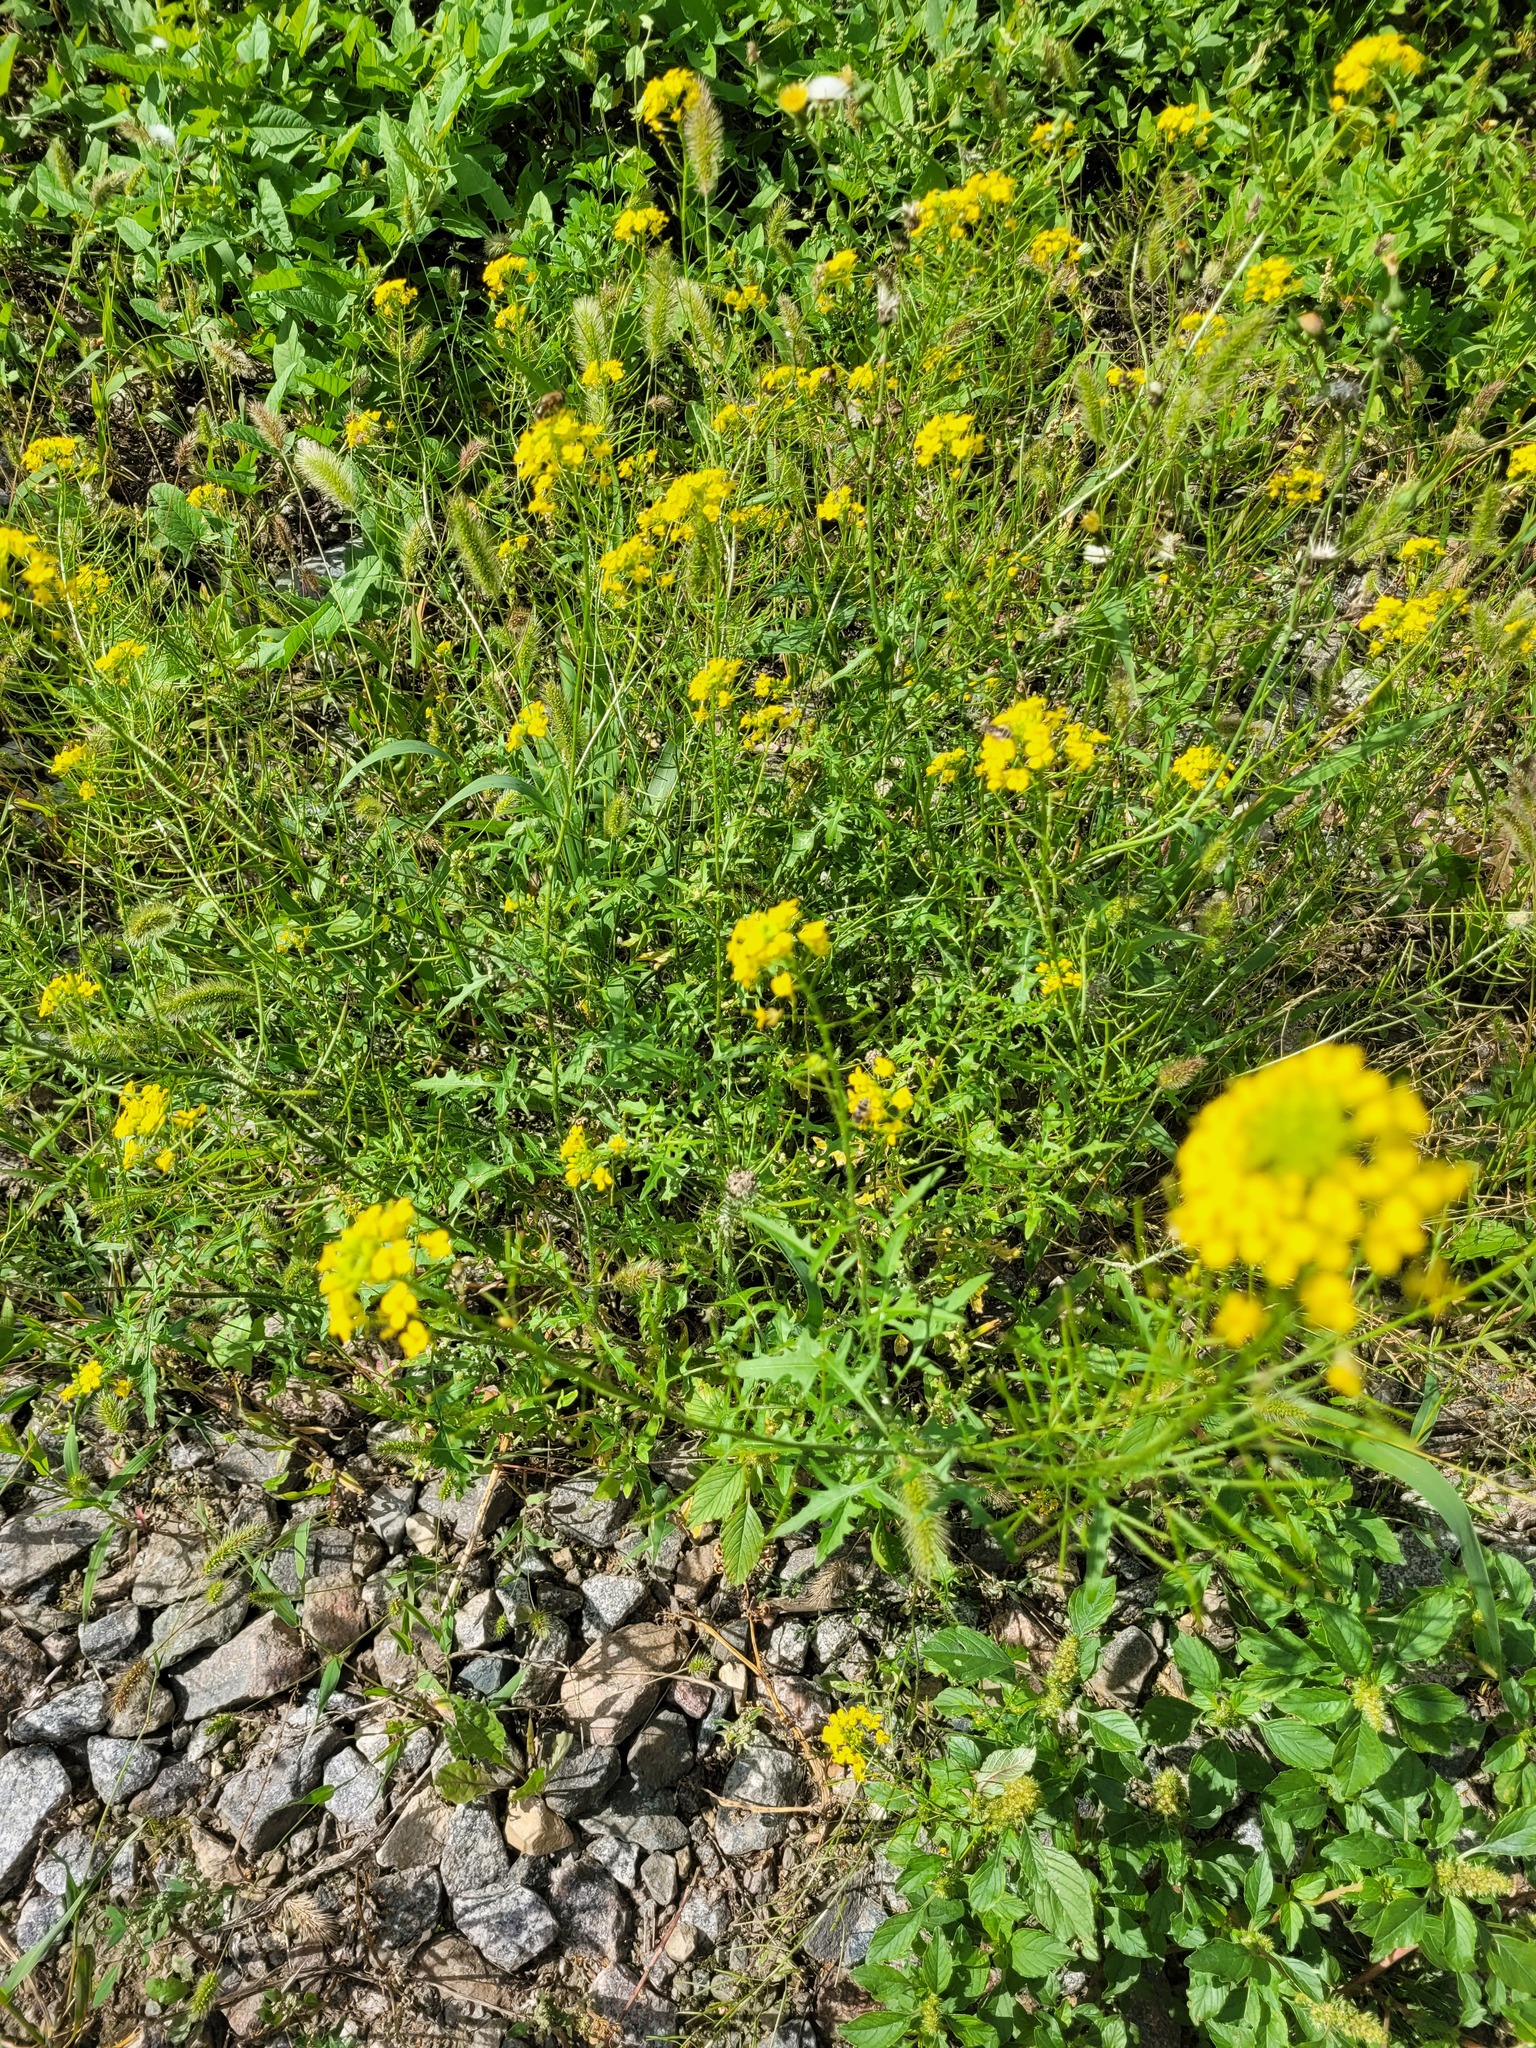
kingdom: Plantae
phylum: Tracheophyta
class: Magnoliopsida
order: Brassicales
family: Brassicaceae
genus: Sisymbrium
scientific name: Sisymbrium loeselii
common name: False london-rocket
